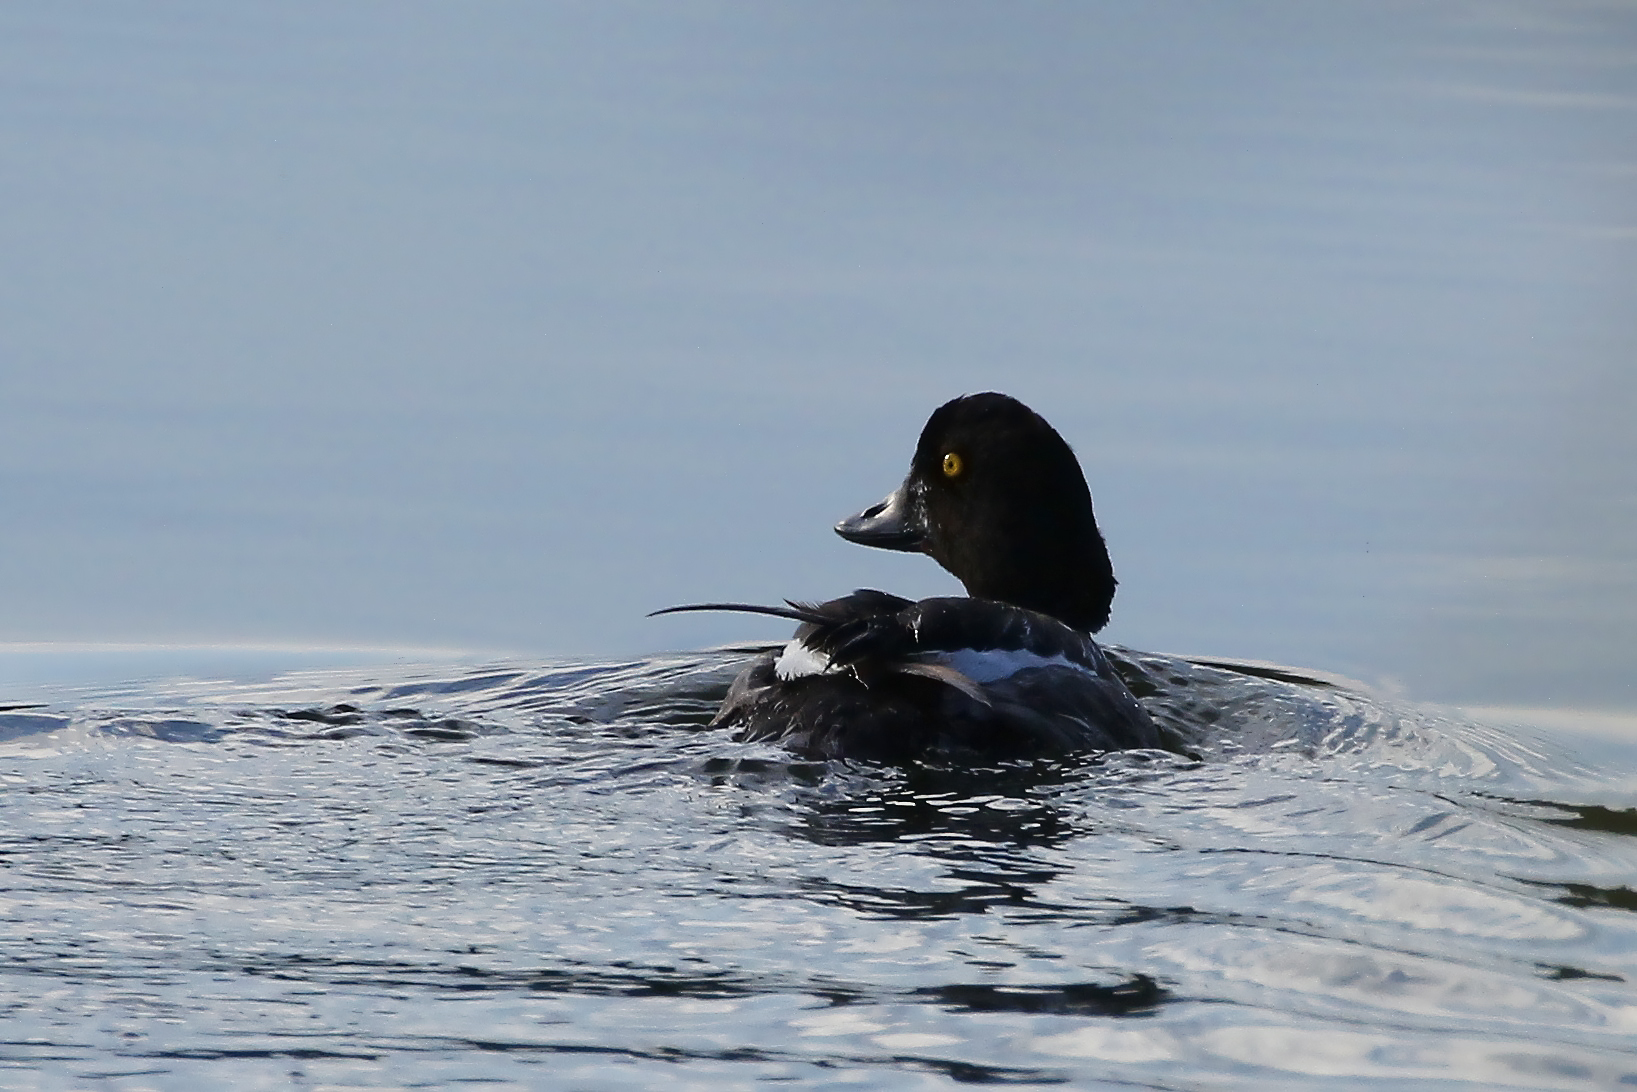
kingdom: Animalia
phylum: Chordata
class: Aves
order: Anseriformes
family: Anatidae
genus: Bucephala
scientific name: Bucephala clangula
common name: Common goldeneye
